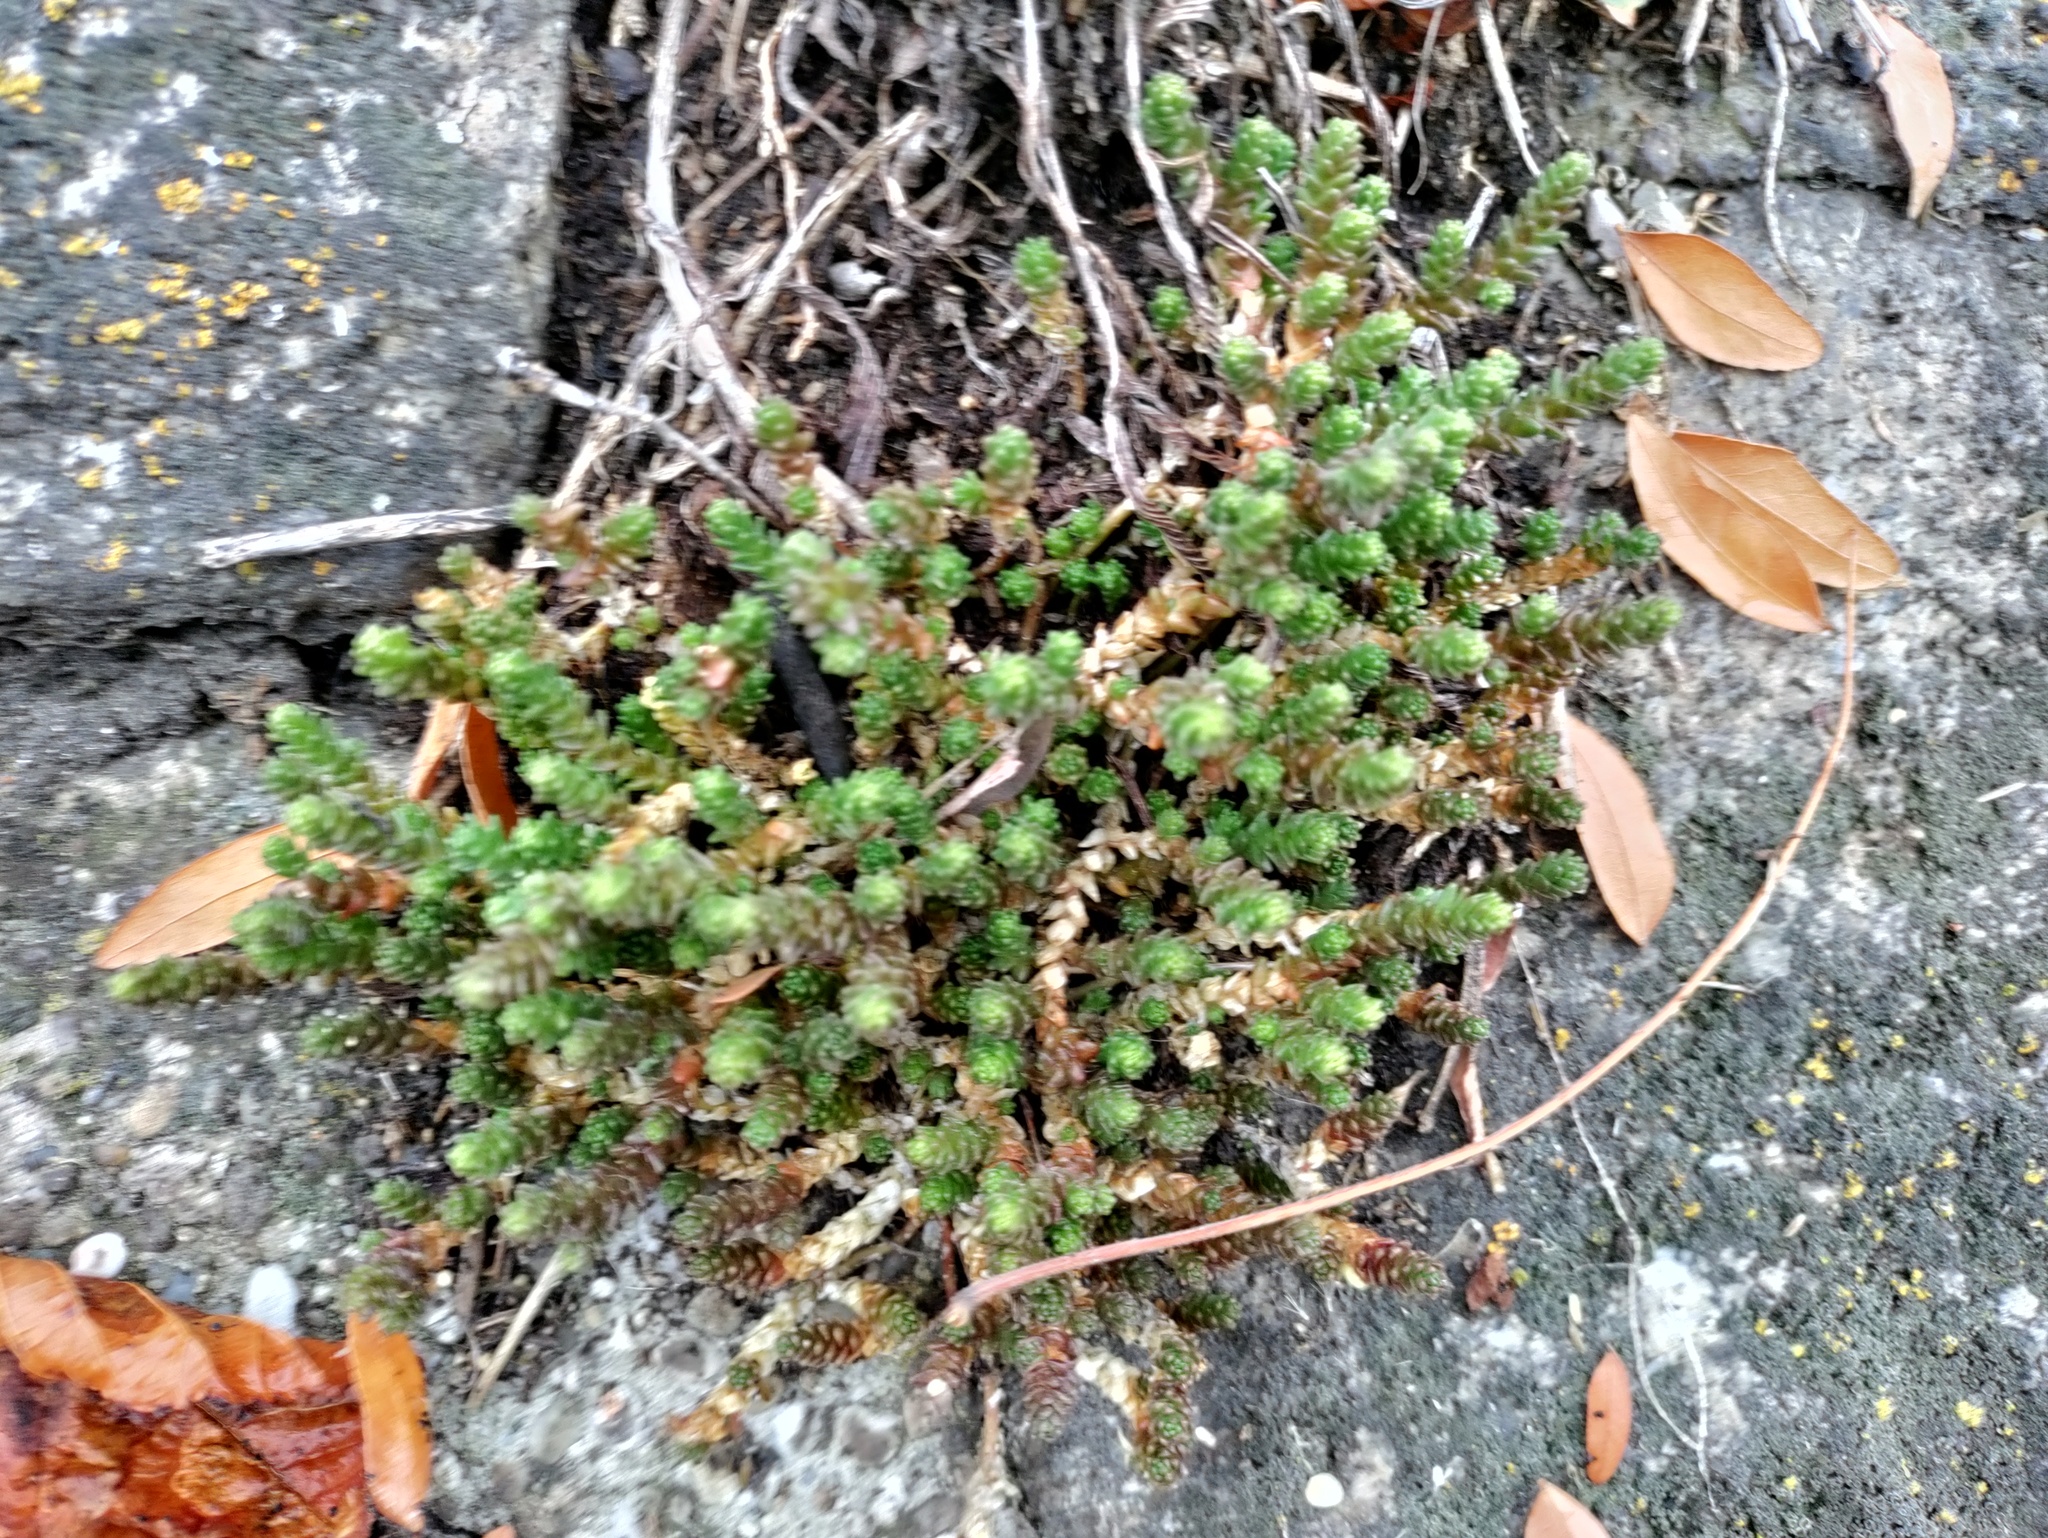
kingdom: Plantae
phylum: Tracheophyta
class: Magnoliopsida
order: Saxifragales
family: Crassulaceae
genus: Sedum
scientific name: Sedum acre
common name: Biting stonecrop
